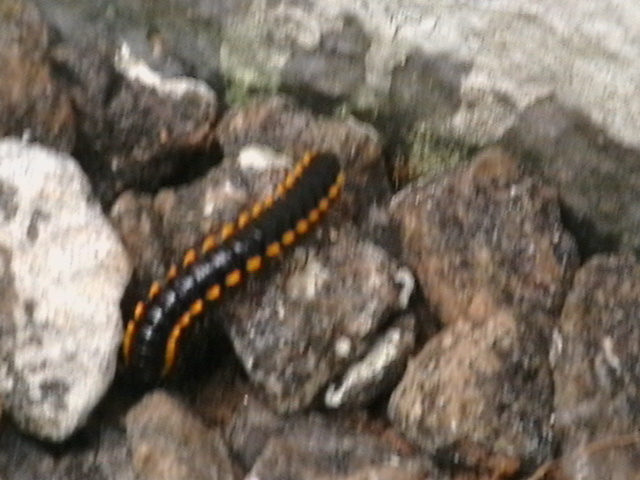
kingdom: Animalia
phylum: Arthropoda
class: Diplopoda
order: Polydesmida
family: Paradoxosomatidae
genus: Orthomorpha
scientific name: Orthomorpha coarctata
